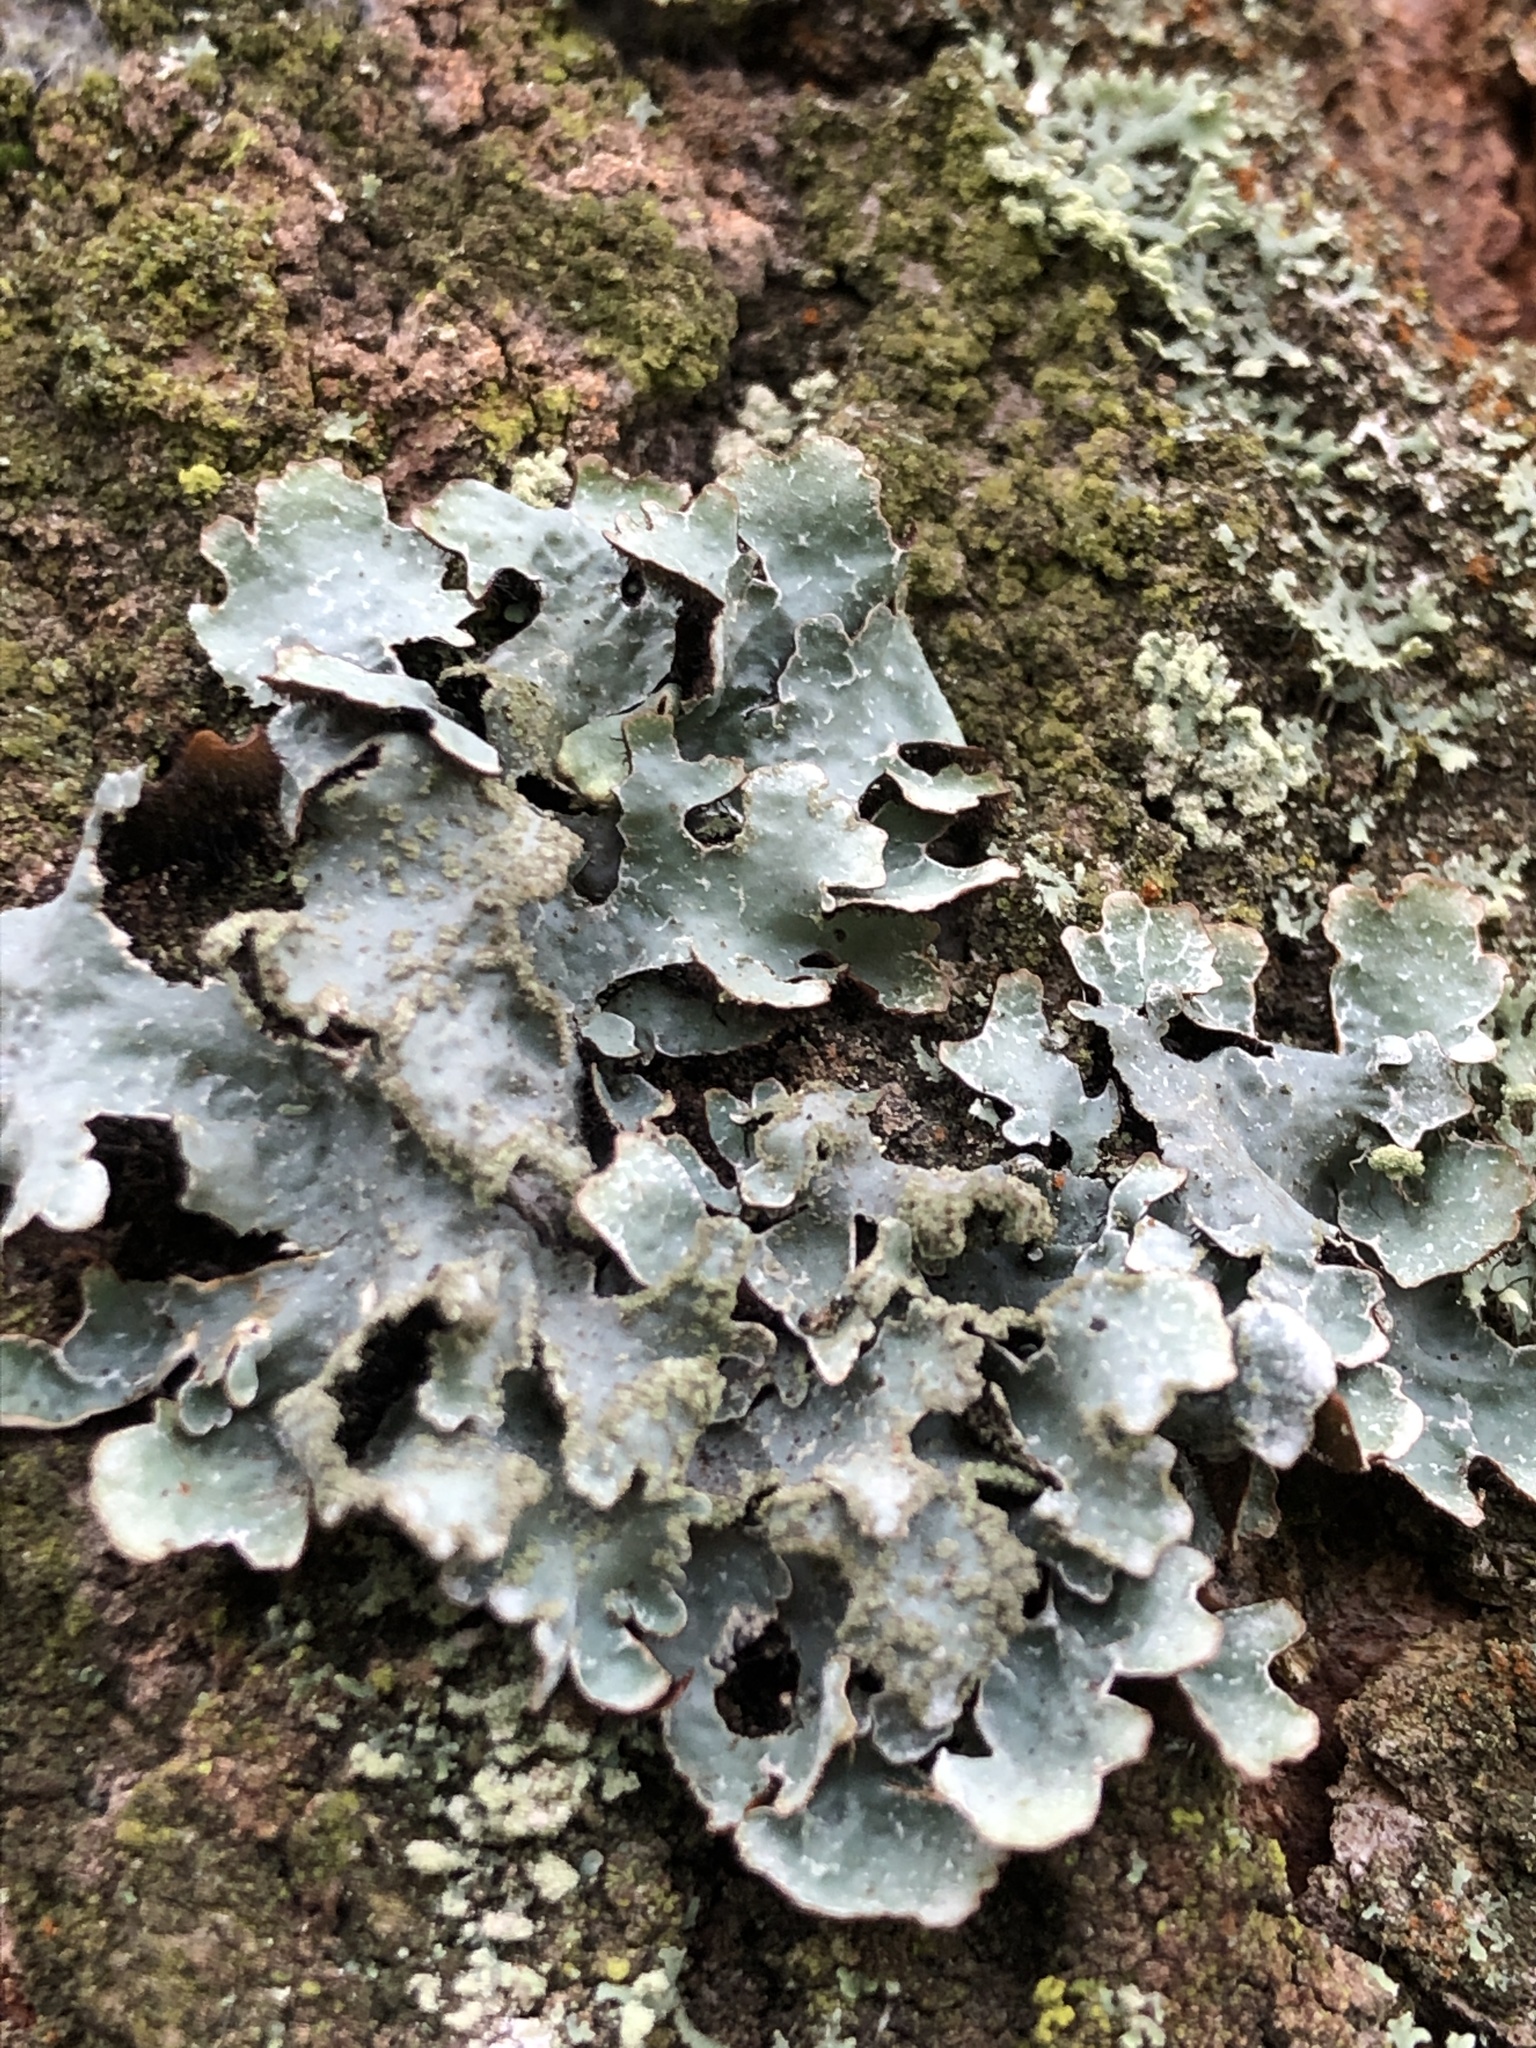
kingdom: Fungi
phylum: Ascomycota
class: Lecanoromycetes
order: Lecanorales
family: Parmeliaceae
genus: Parmelia
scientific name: Parmelia sulcata
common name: Netted shield lichen
